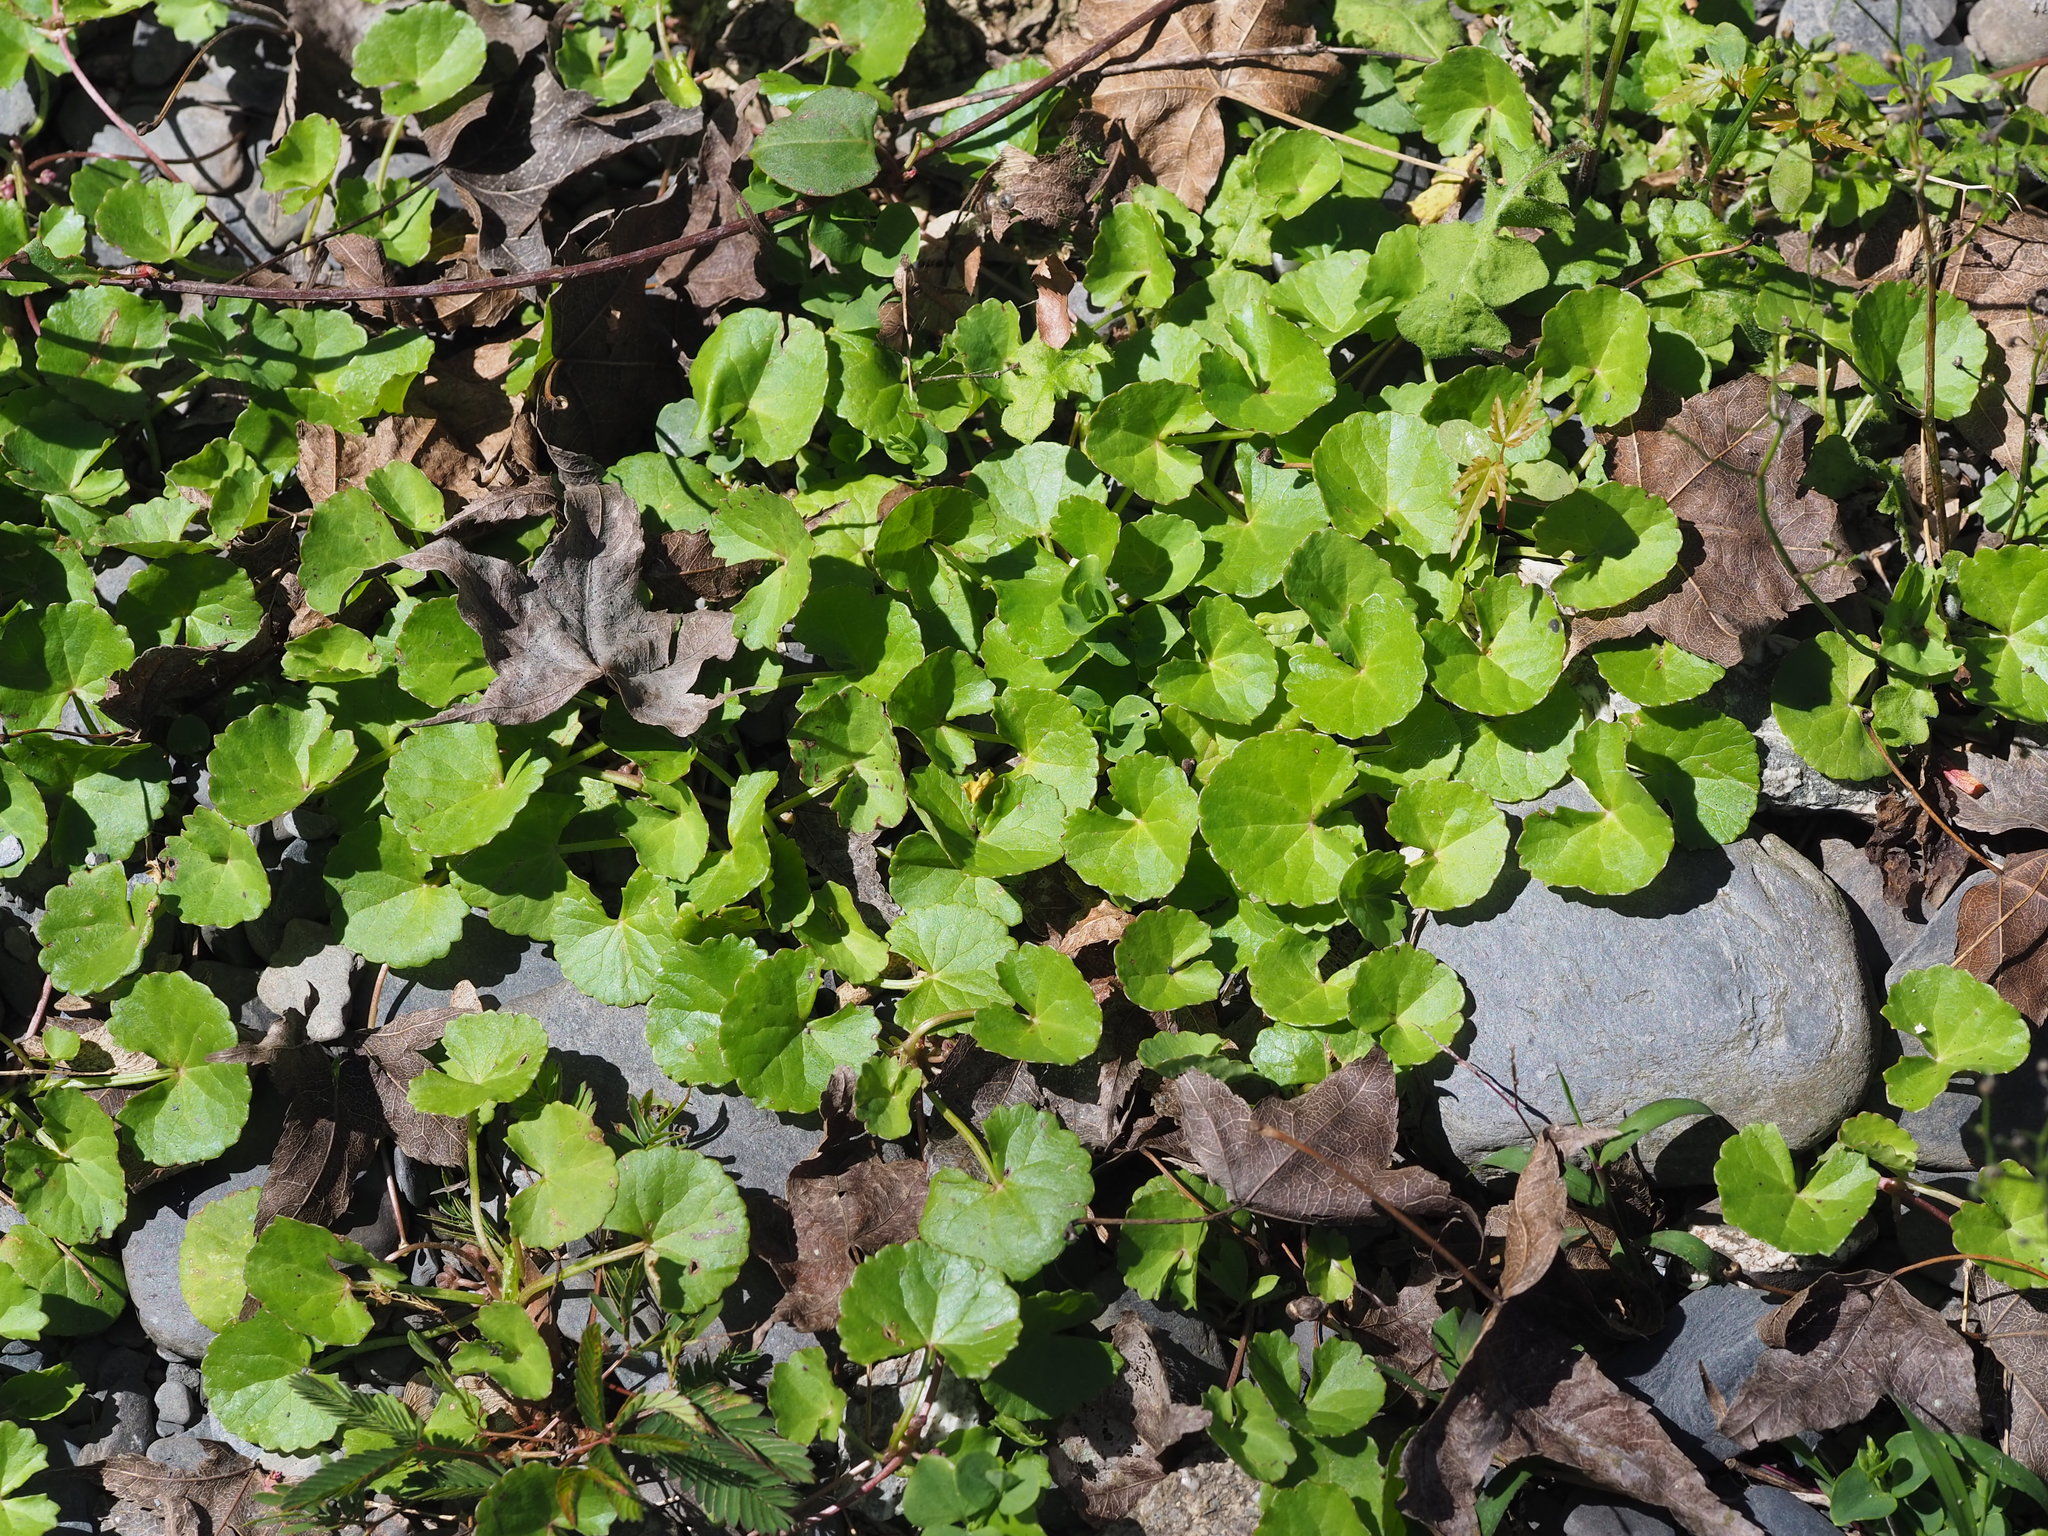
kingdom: Plantae
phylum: Tracheophyta
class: Magnoliopsida
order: Apiales
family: Apiaceae
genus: Centella
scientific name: Centella asiatica
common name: Spadeleaf
